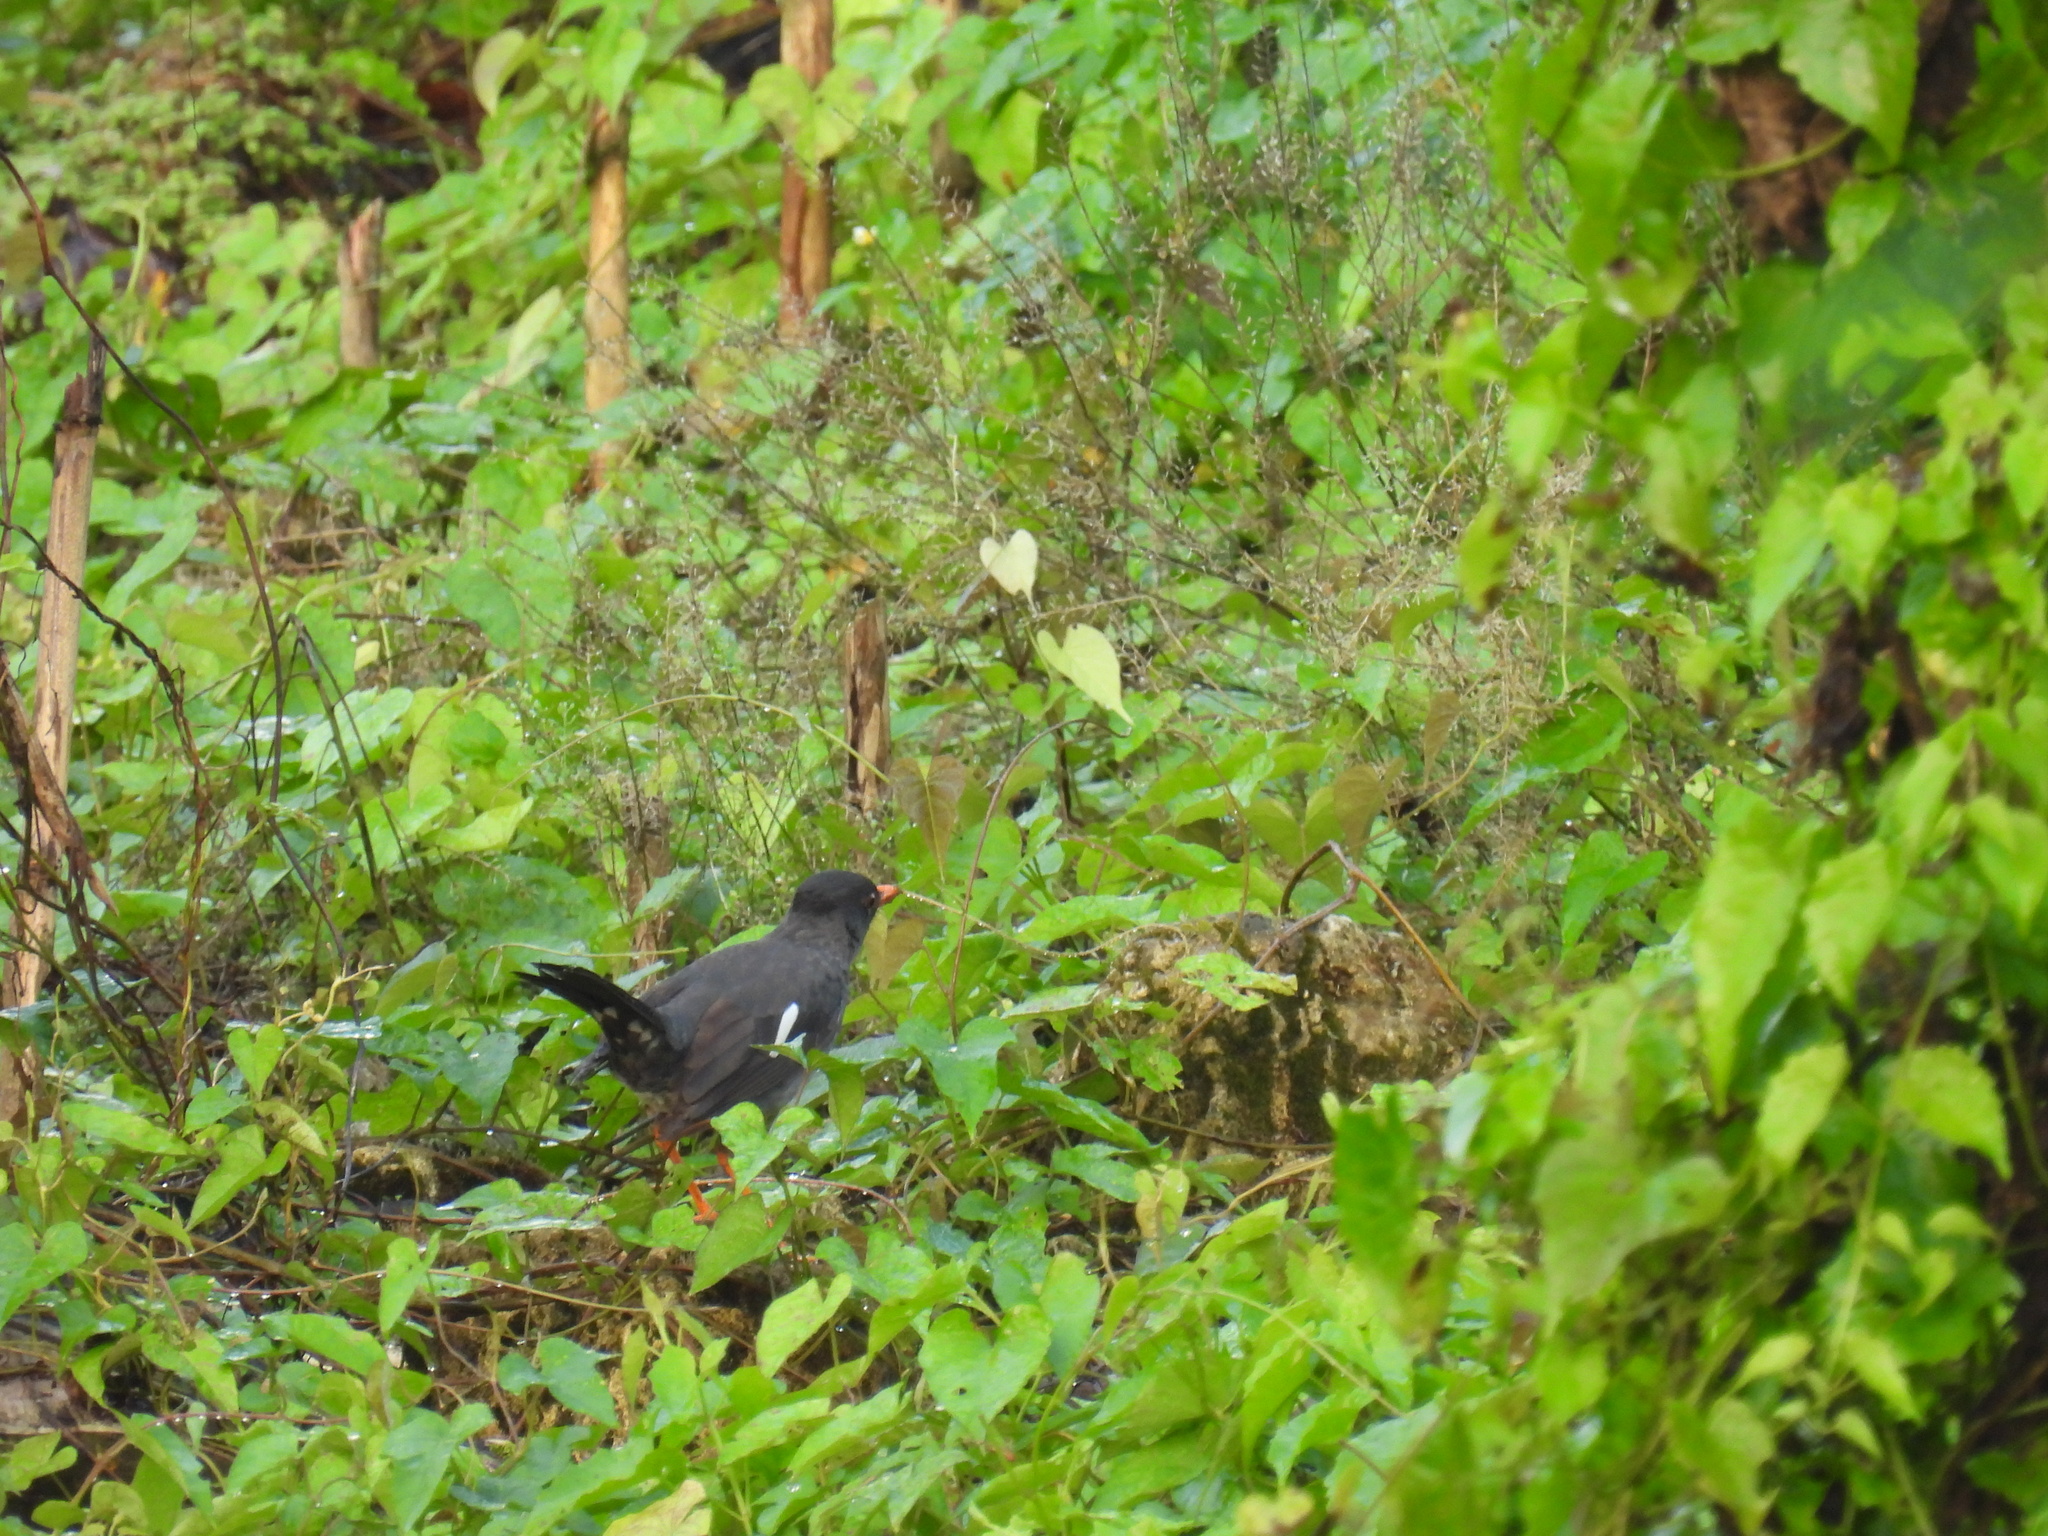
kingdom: Animalia
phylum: Chordata
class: Aves
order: Passeriformes
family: Turdidae
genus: Turdus
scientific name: Turdus aurantius
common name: White-chinned thrush
